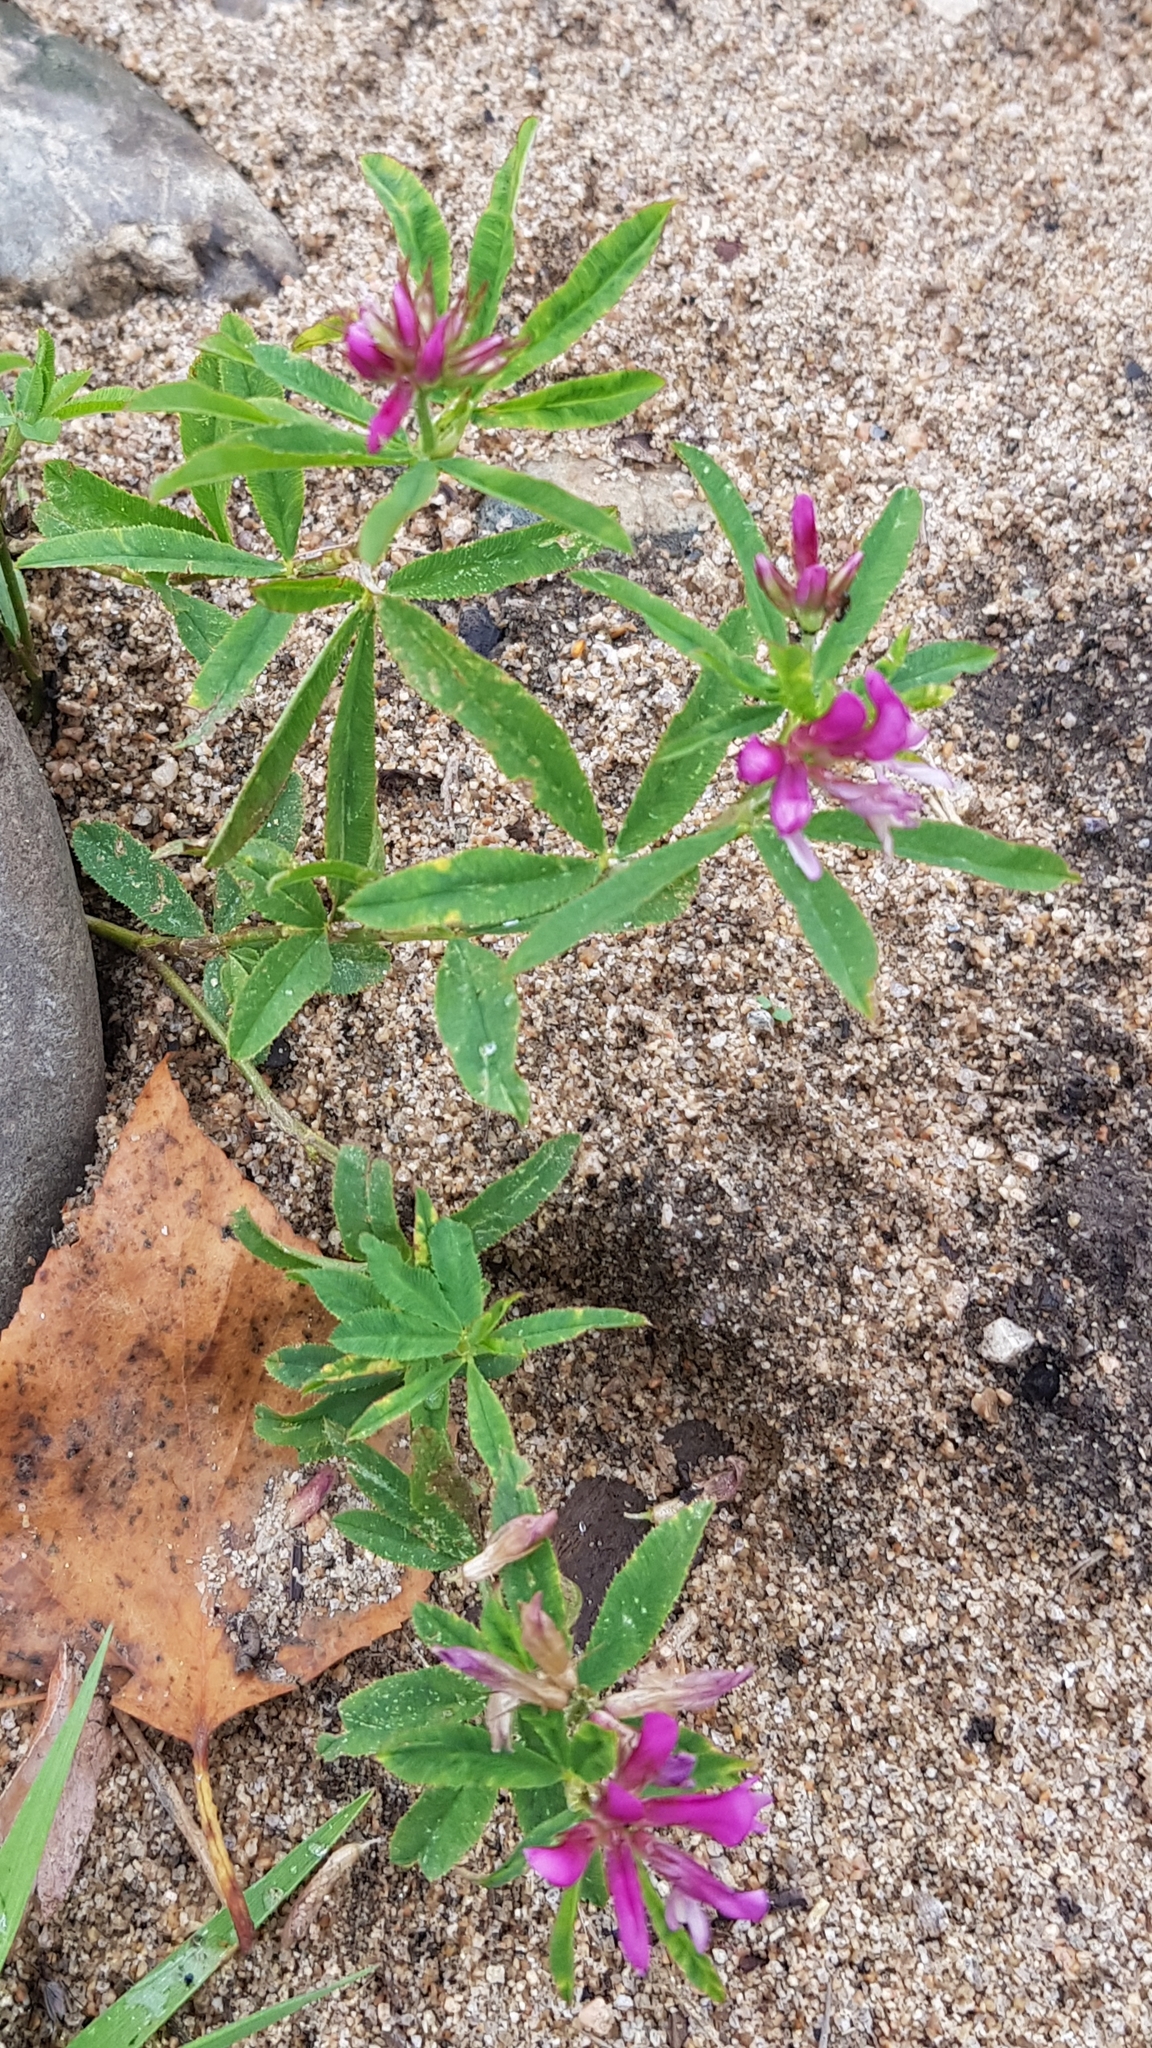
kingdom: Plantae
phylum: Tracheophyta
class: Magnoliopsida
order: Fabales
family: Fabaceae
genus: Trifolium
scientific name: Trifolium lupinaster
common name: Lupine clover
